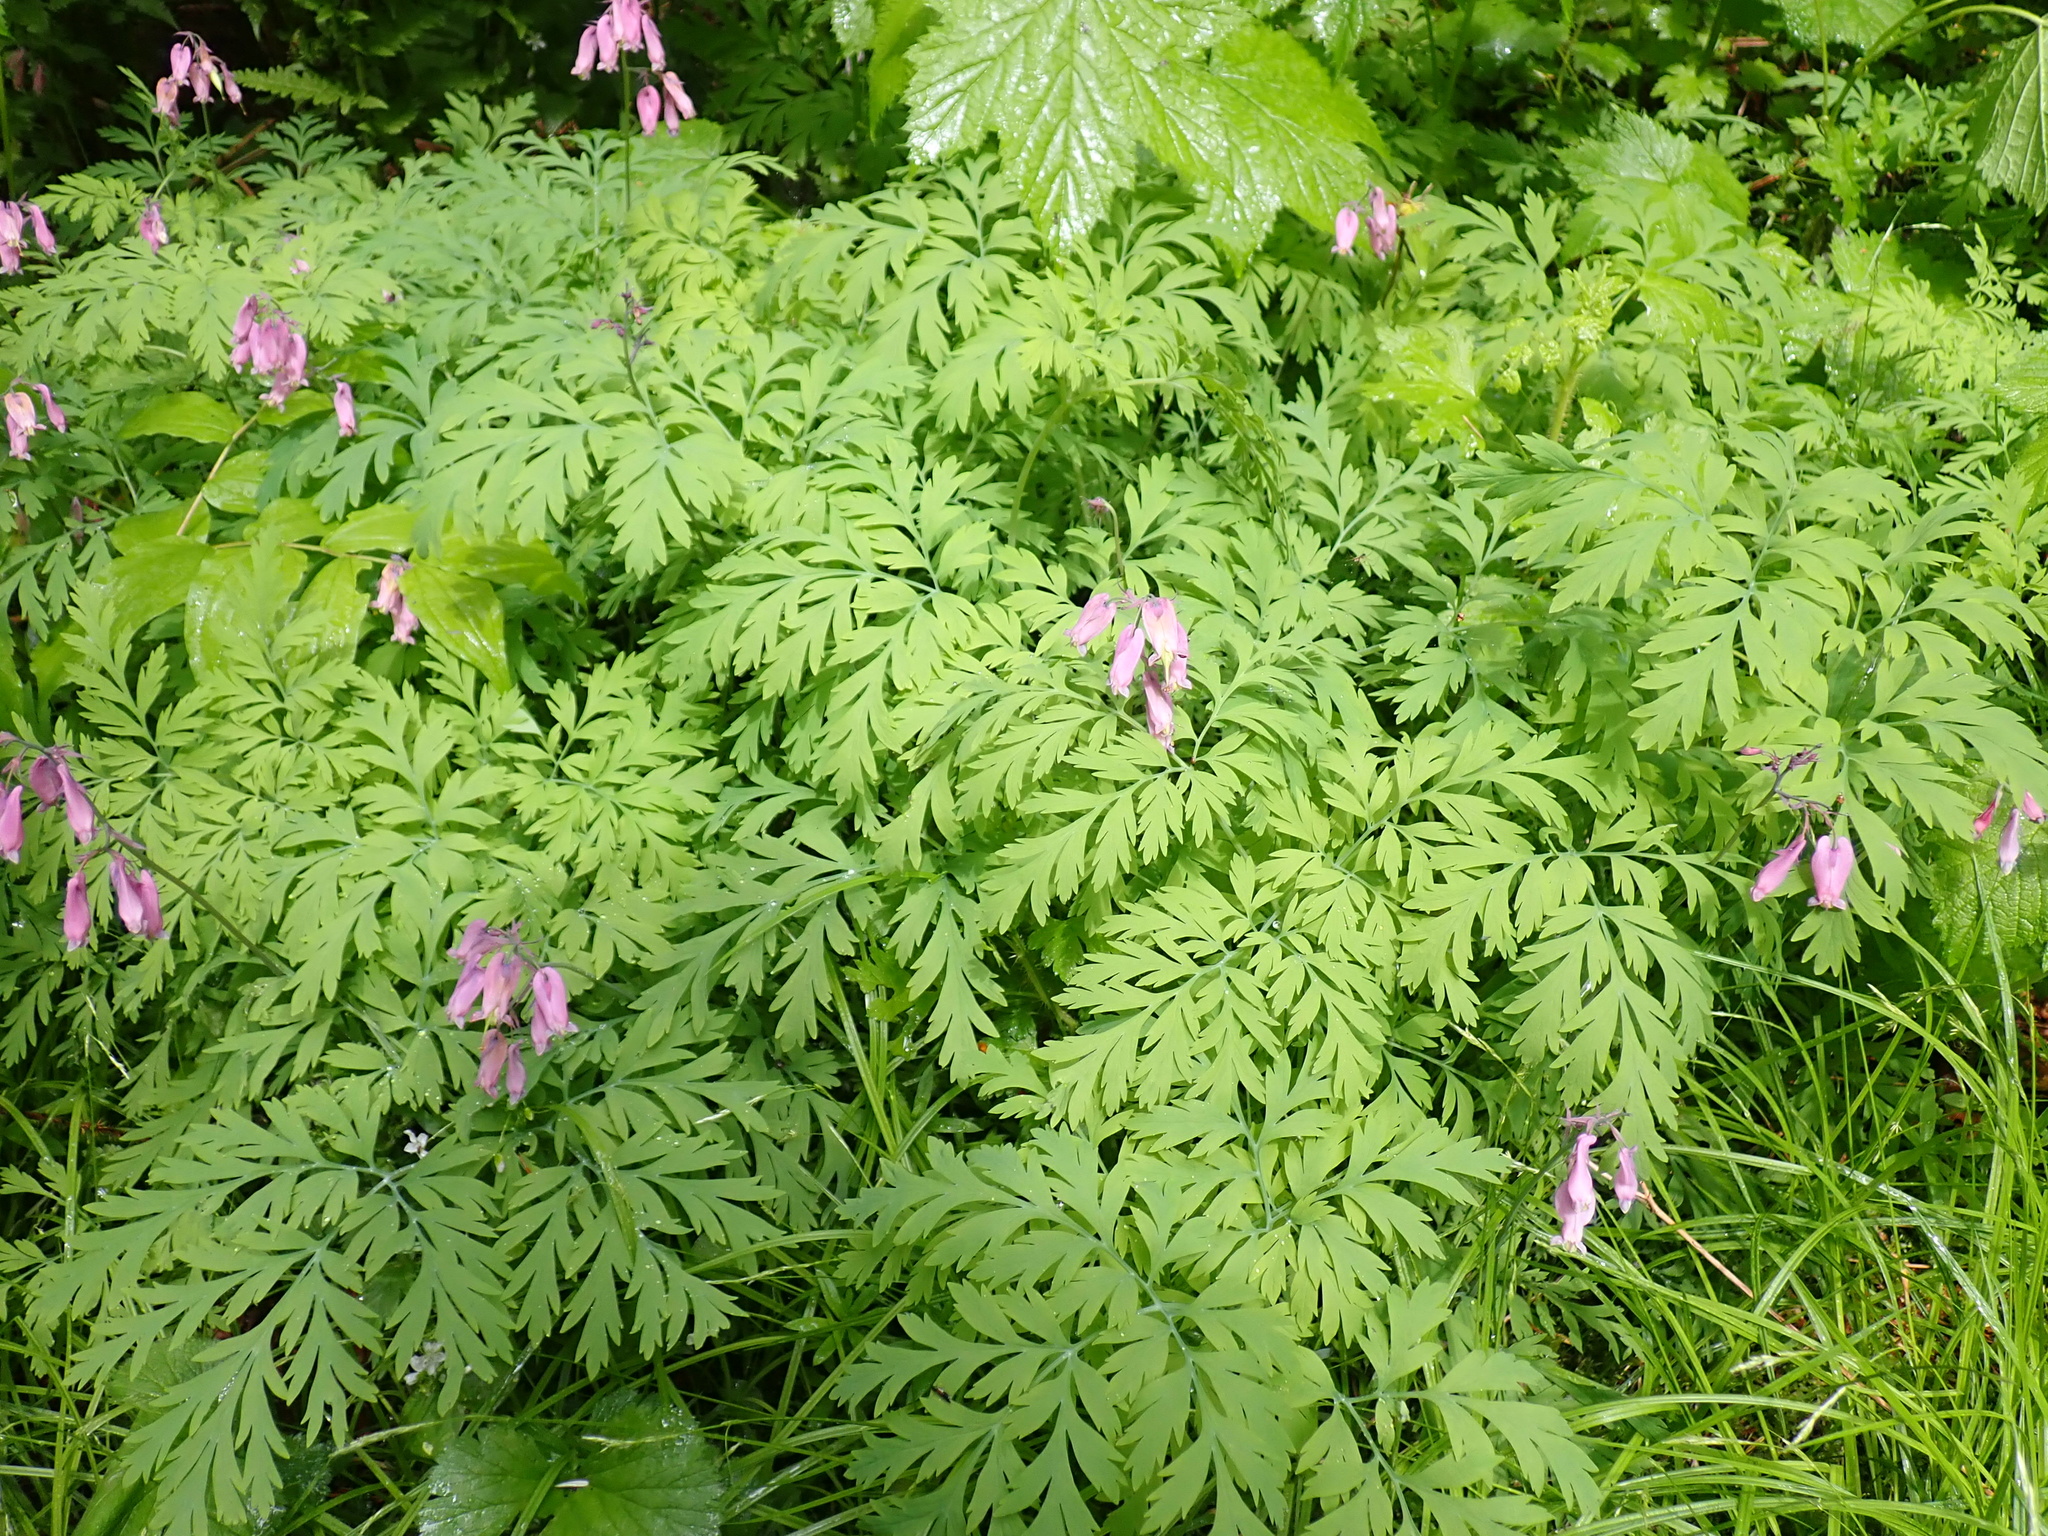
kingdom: Plantae
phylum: Tracheophyta
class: Magnoliopsida
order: Ranunculales
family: Papaveraceae
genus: Dicentra
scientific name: Dicentra formosa
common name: Bleeding-heart
